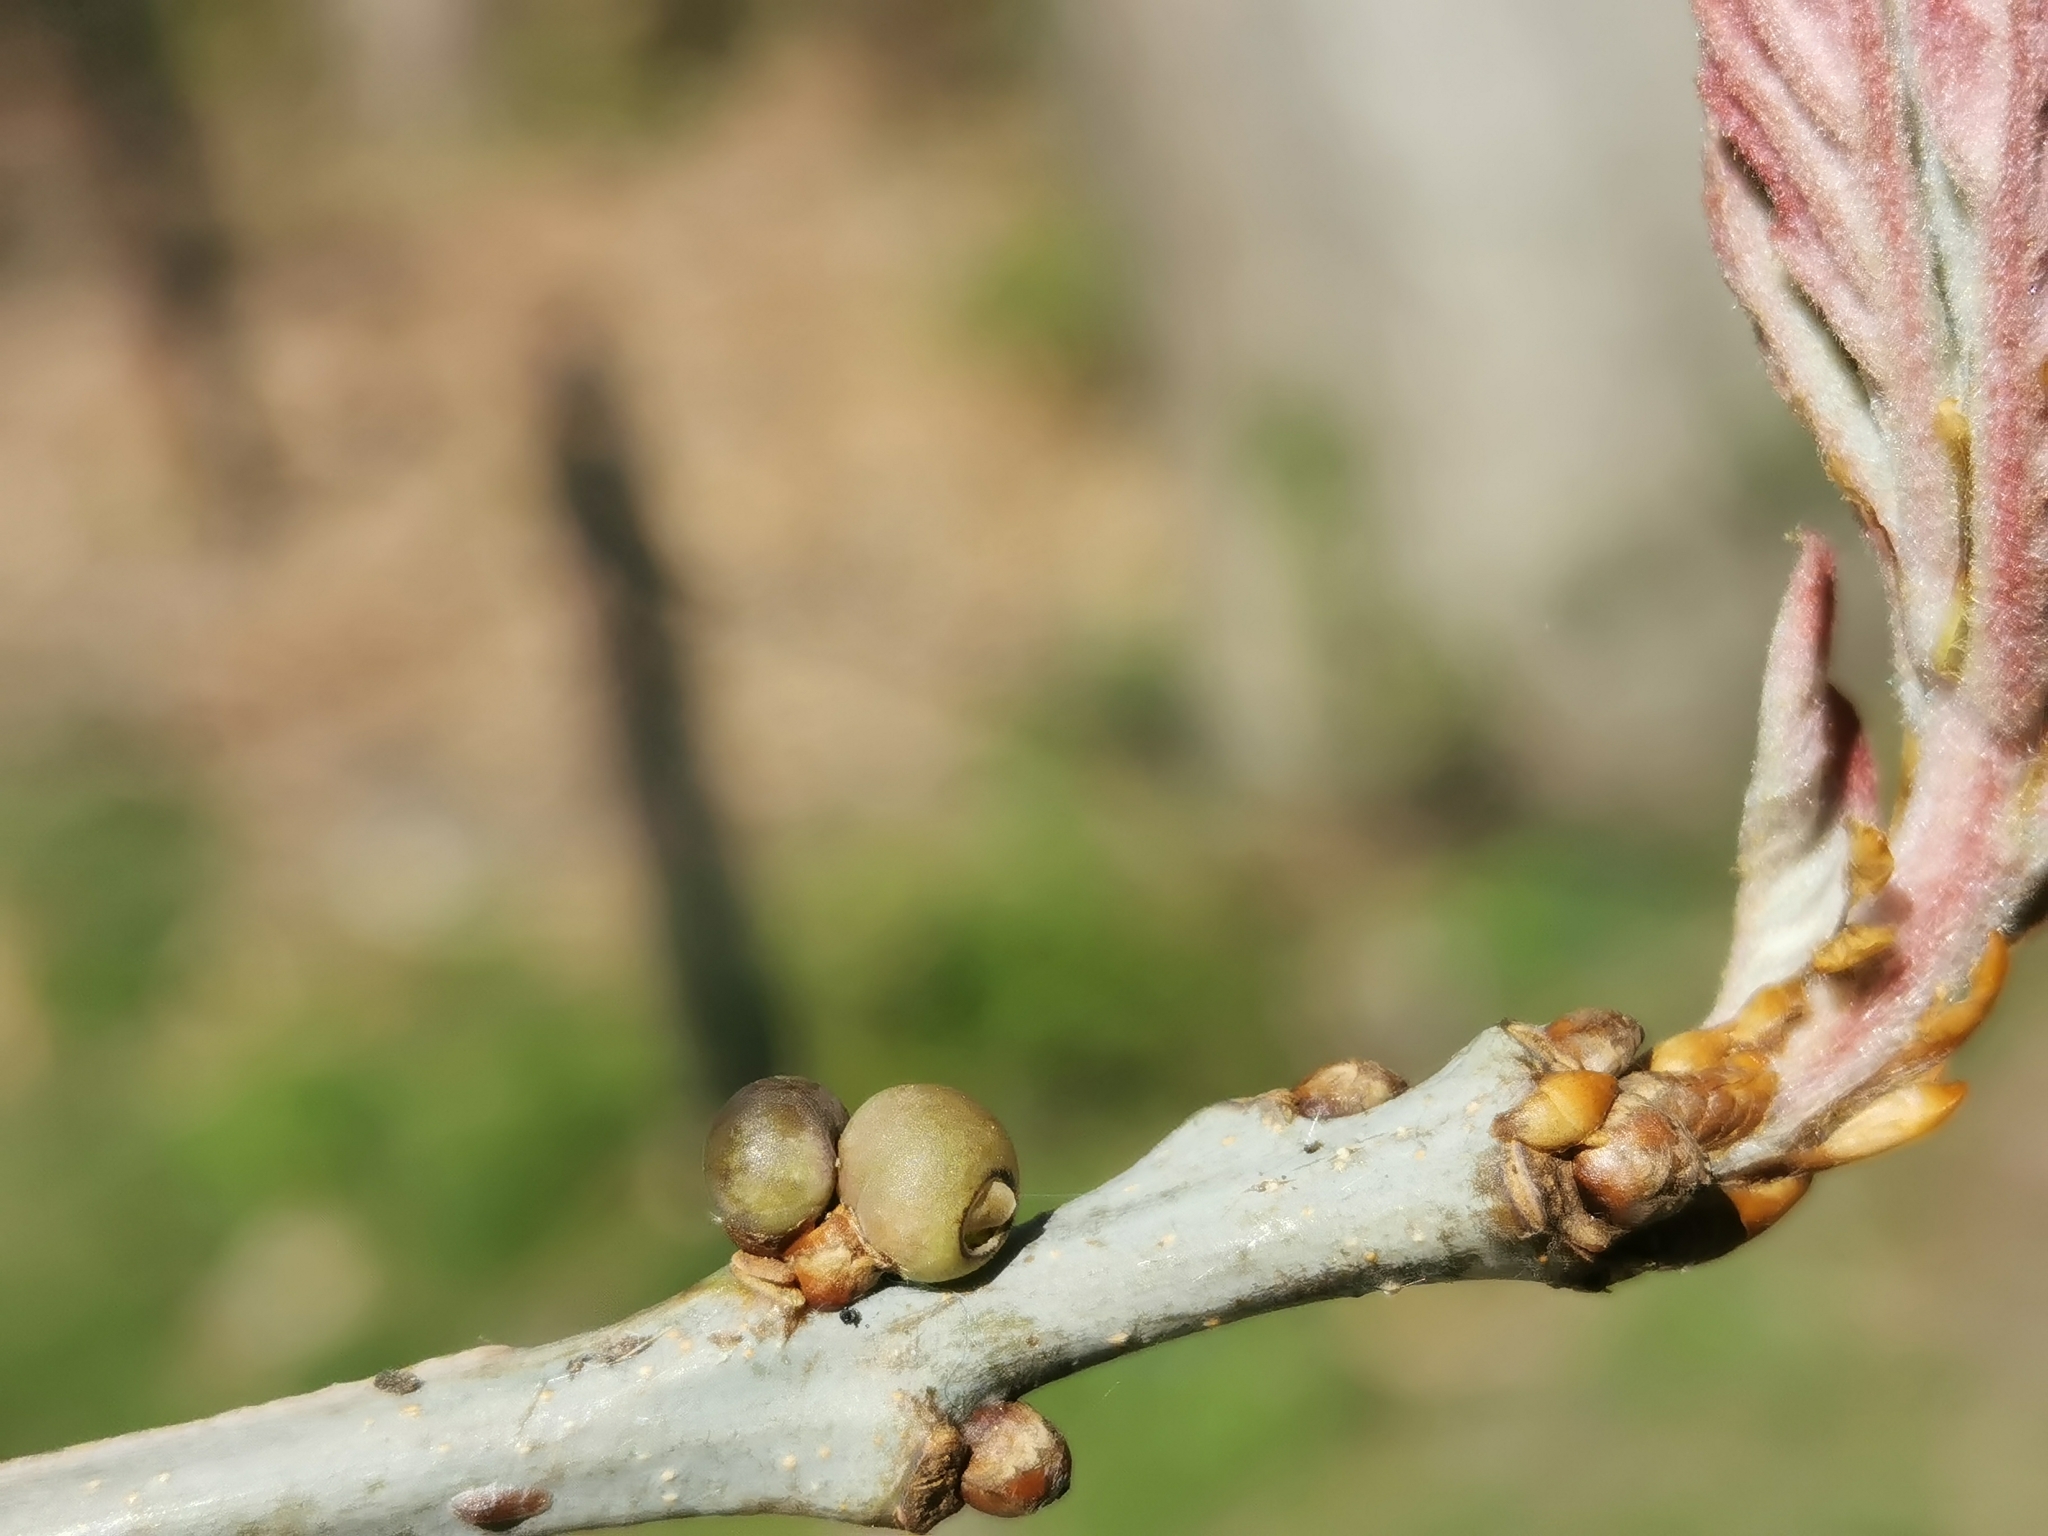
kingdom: Animalia
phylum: Arthropoda
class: Insecta
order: Hymenoptera
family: Cynipidae
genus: Neuroterus
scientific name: Neuroterus
